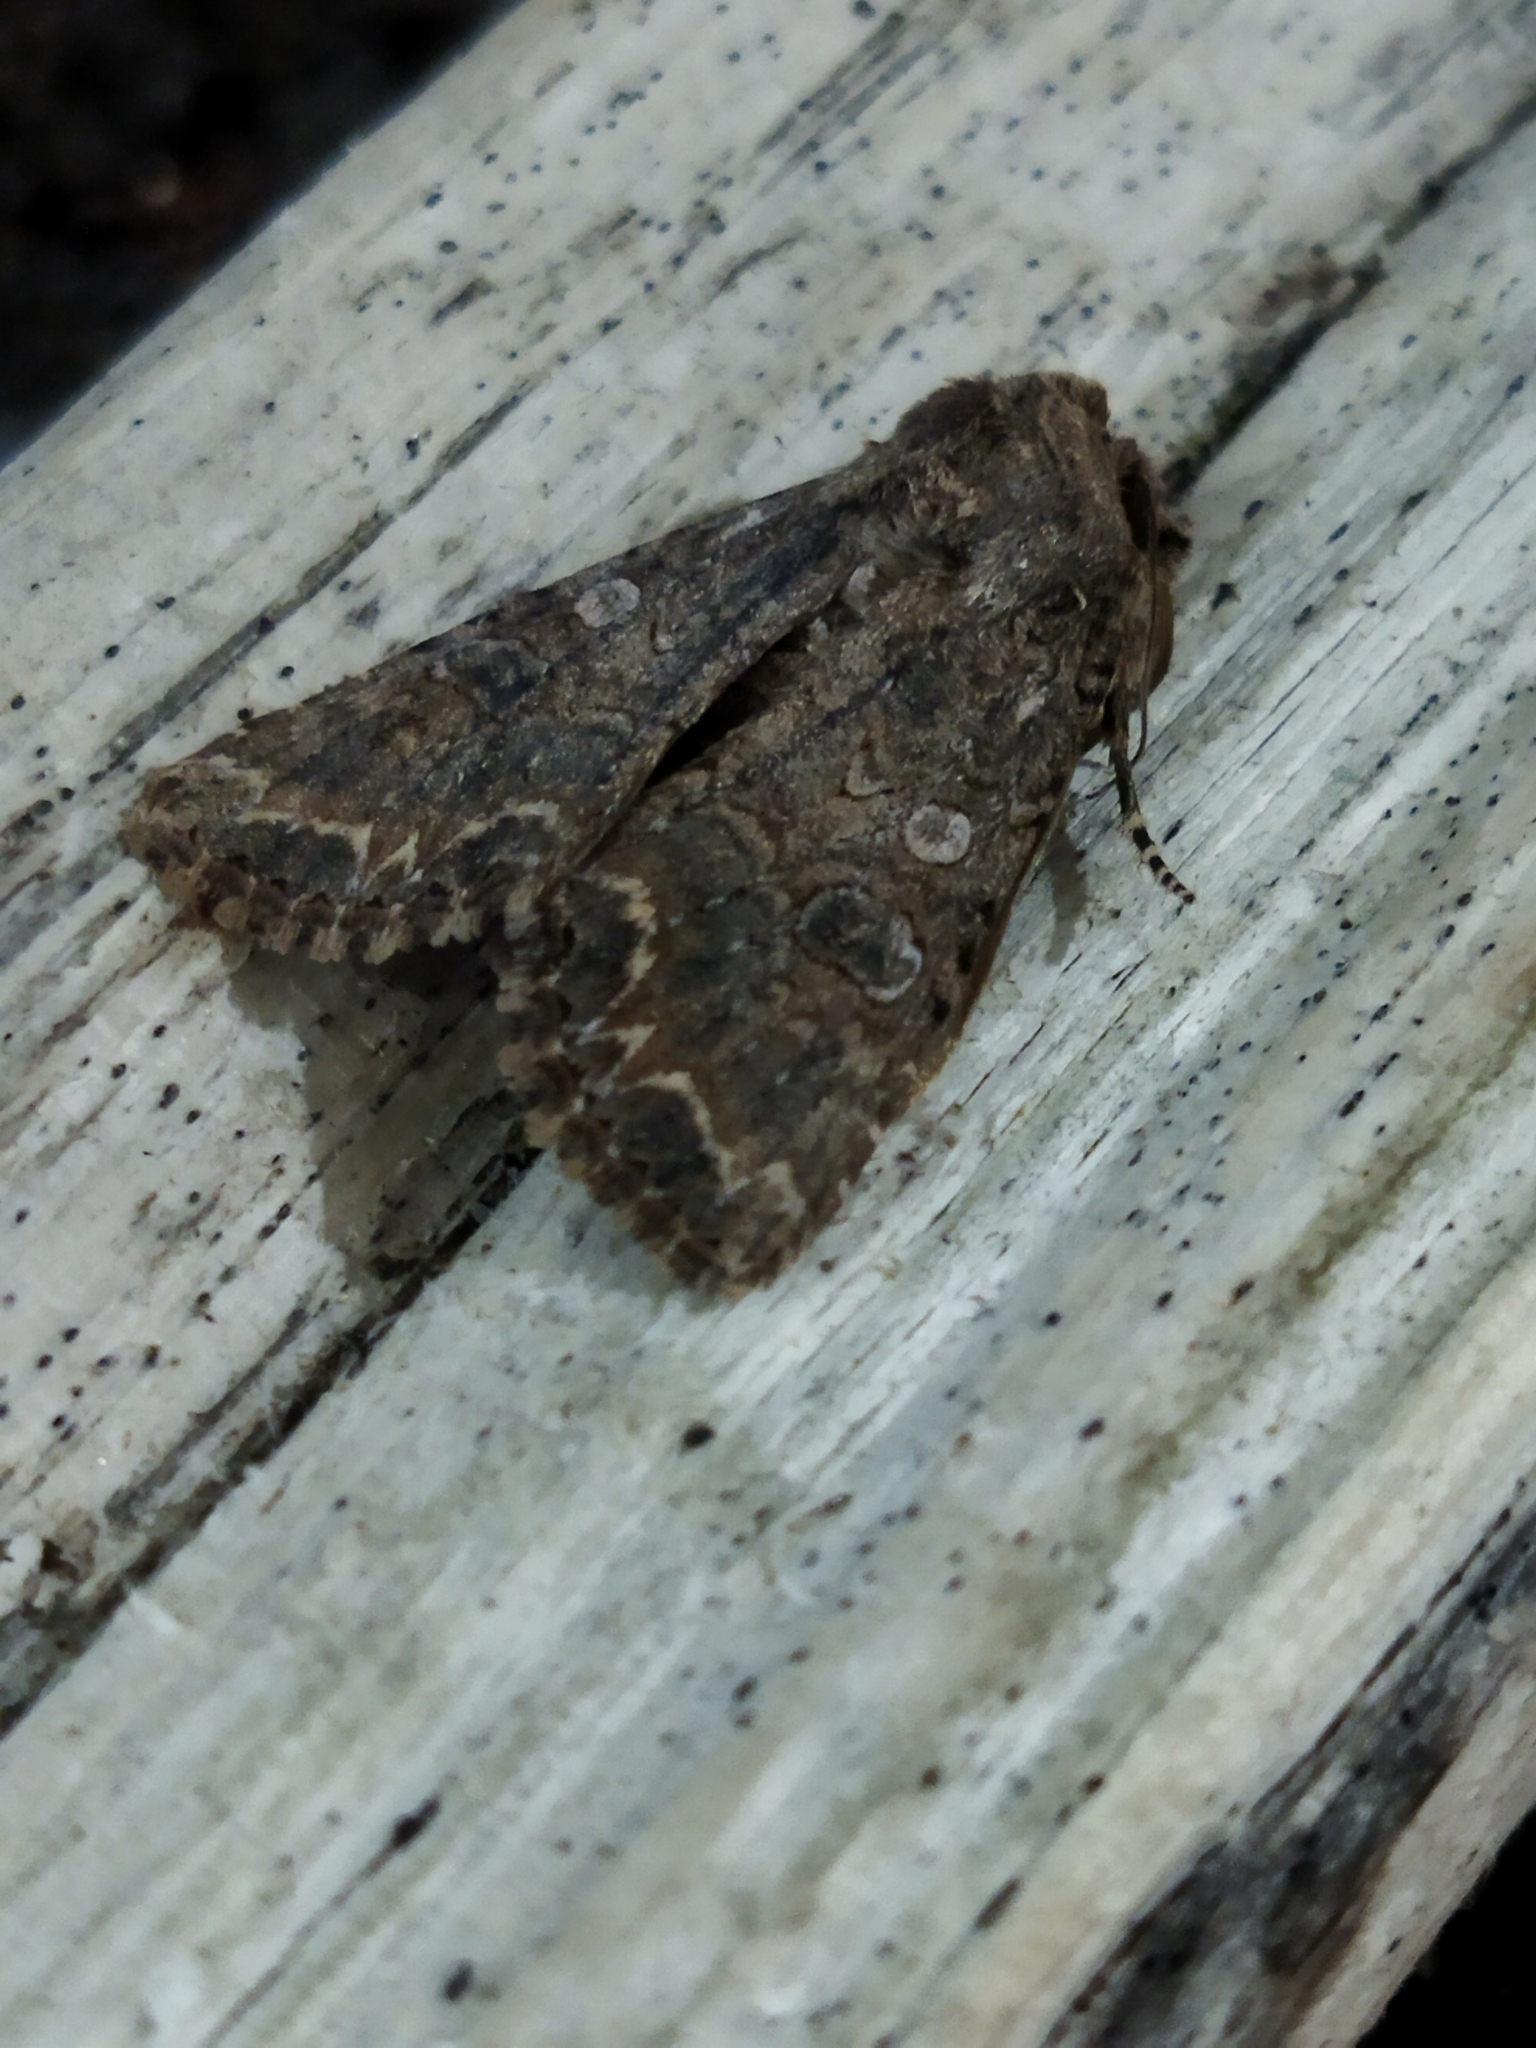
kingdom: Animalia
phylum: Arthropoda
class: Insecta
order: Lepidoptera
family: Noctuidae
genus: Anarta
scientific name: Anarta trifolii
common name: Clover cutworm moth
